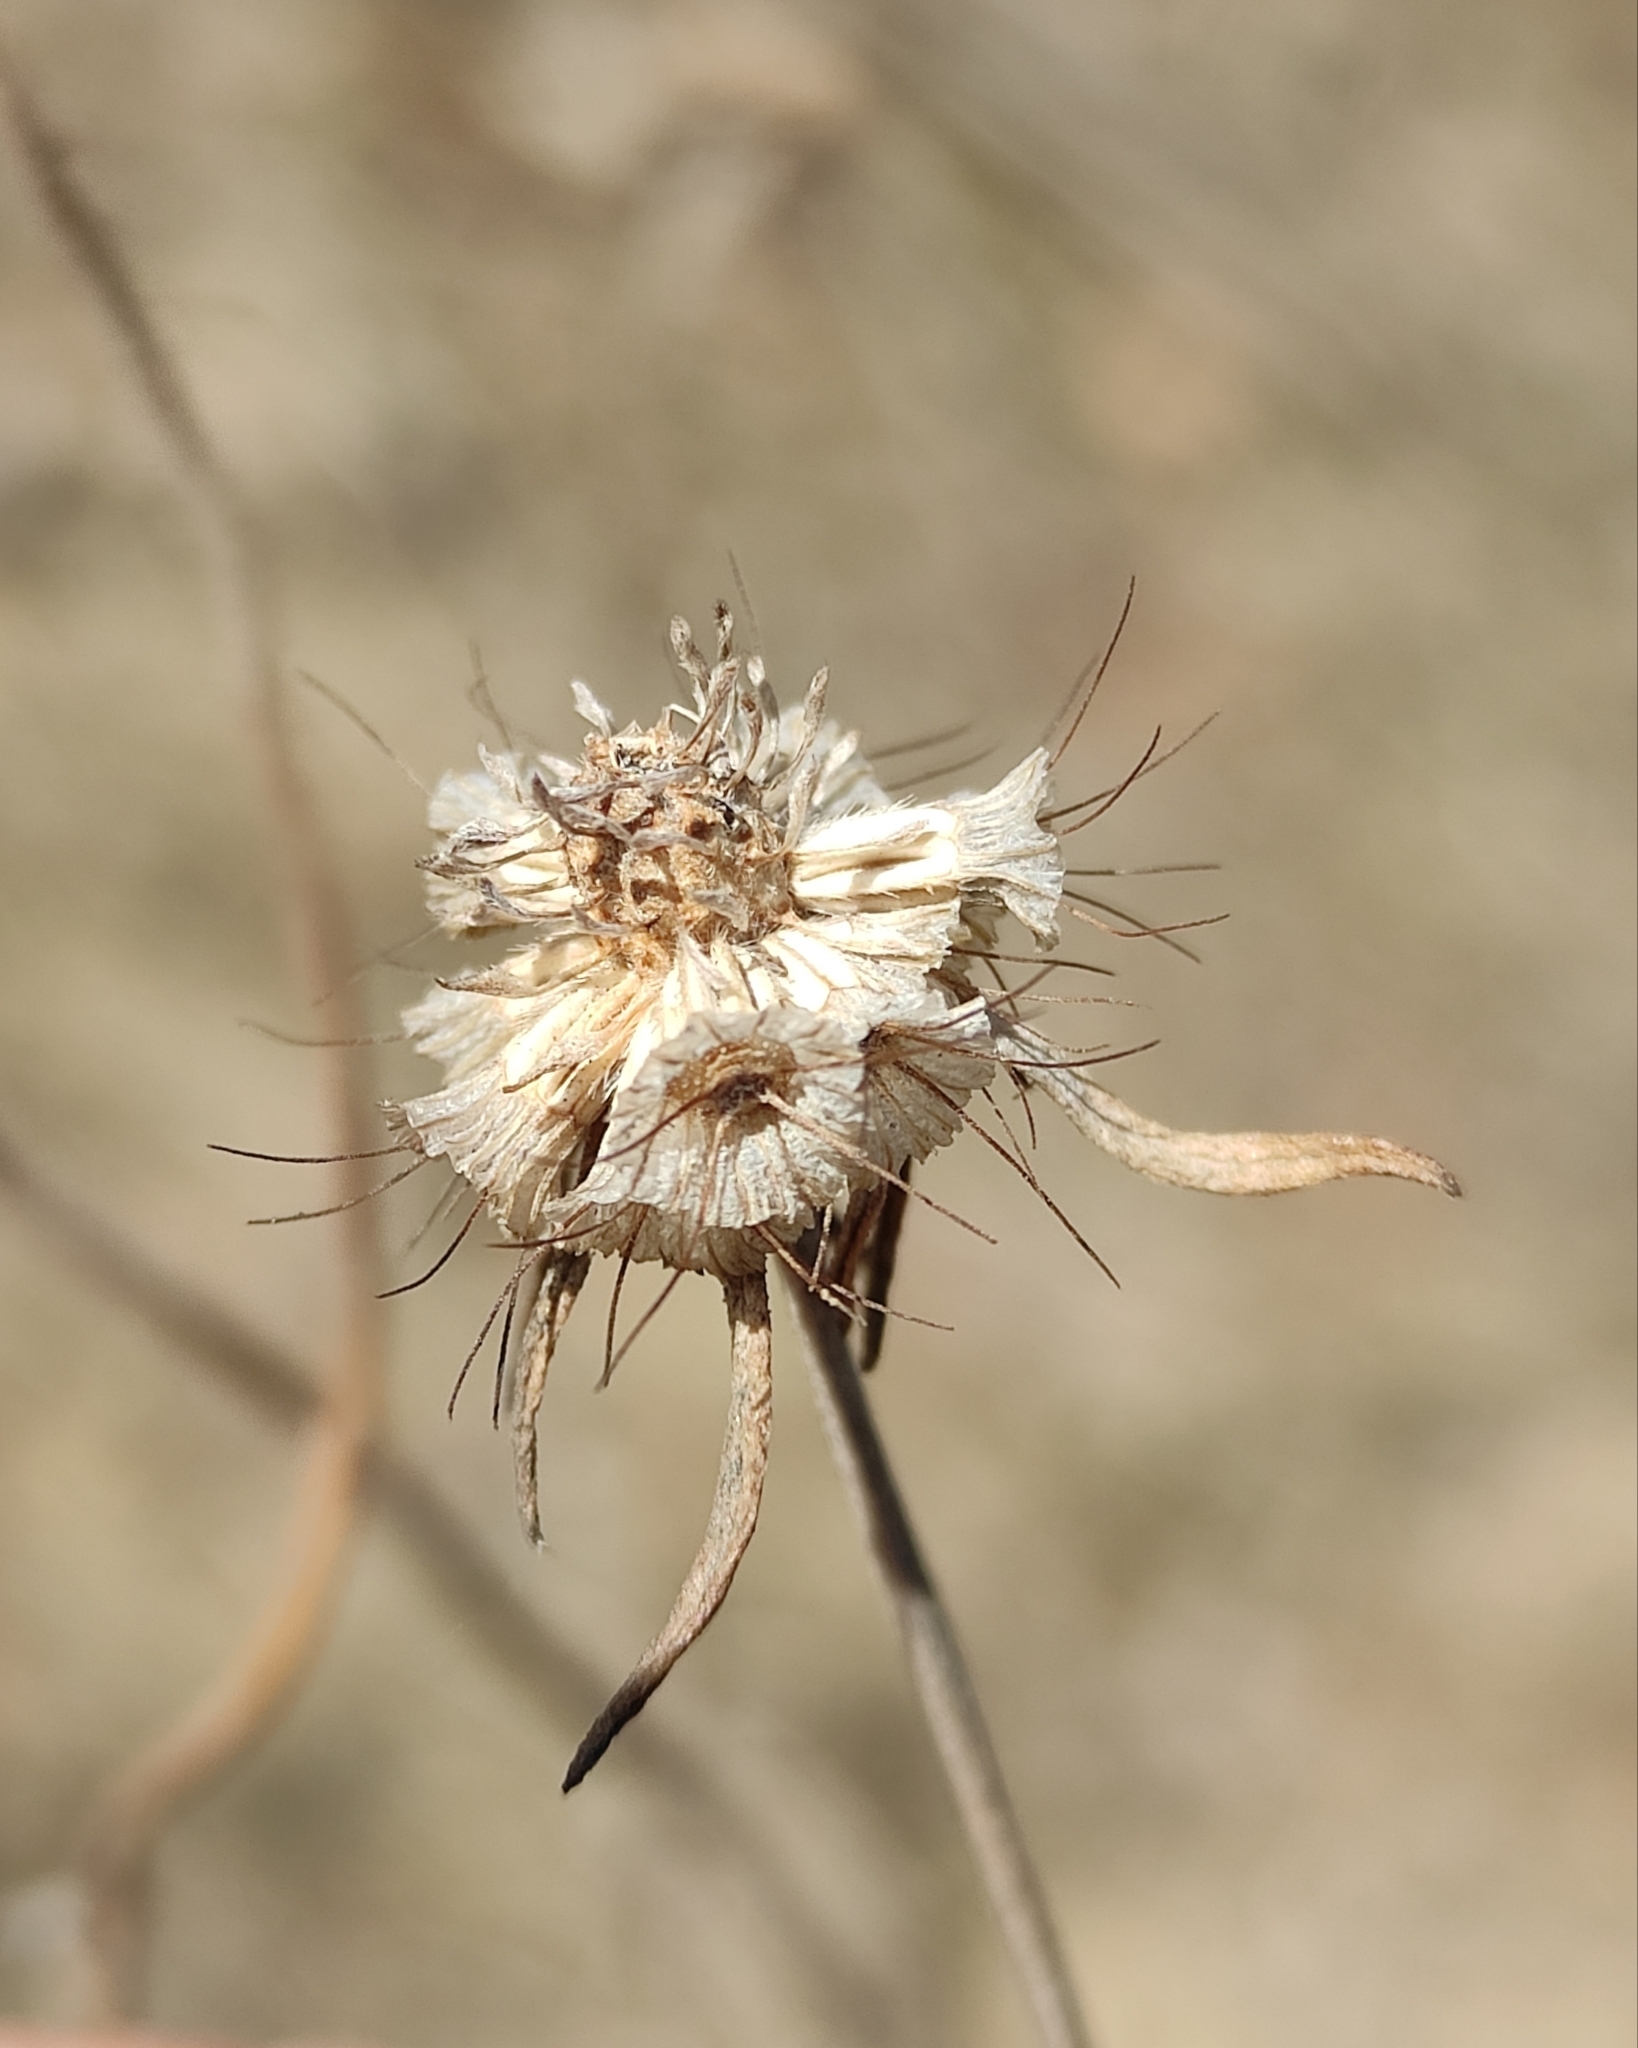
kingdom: Plantae
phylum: Tracheophyta
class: Magnoliopsida
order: Dipsacales
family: Caprifoliaceae
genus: Scabiosa
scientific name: Scabiosa ochroleuca
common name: Cream pincushions
